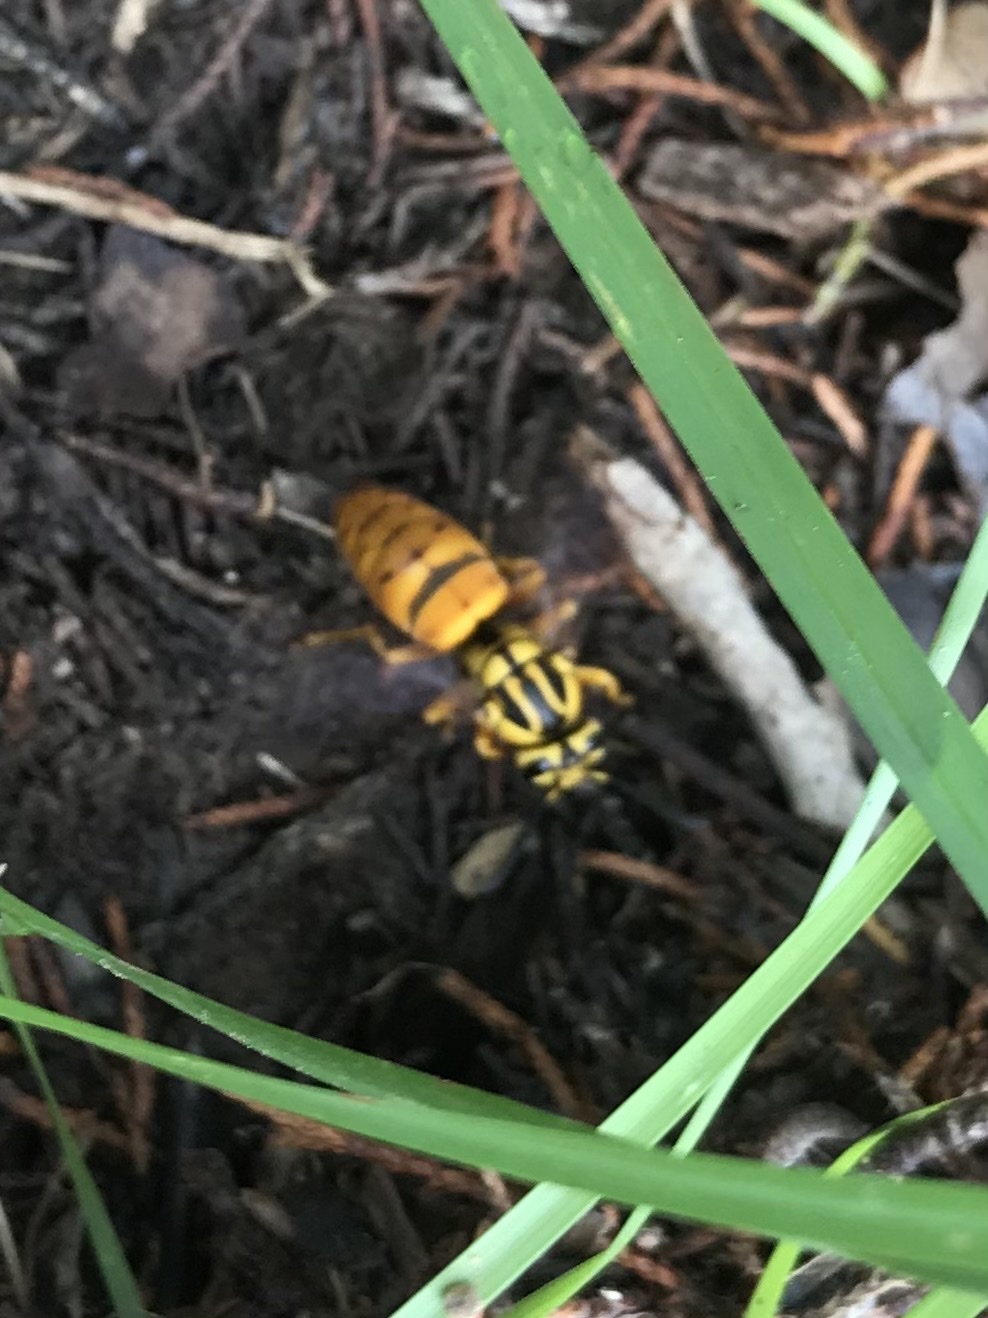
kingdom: Animalia
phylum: Arthropoda
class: Insecta
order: Hymenoptera
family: Vespidae
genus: Vespula
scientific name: Vespula squamosa
